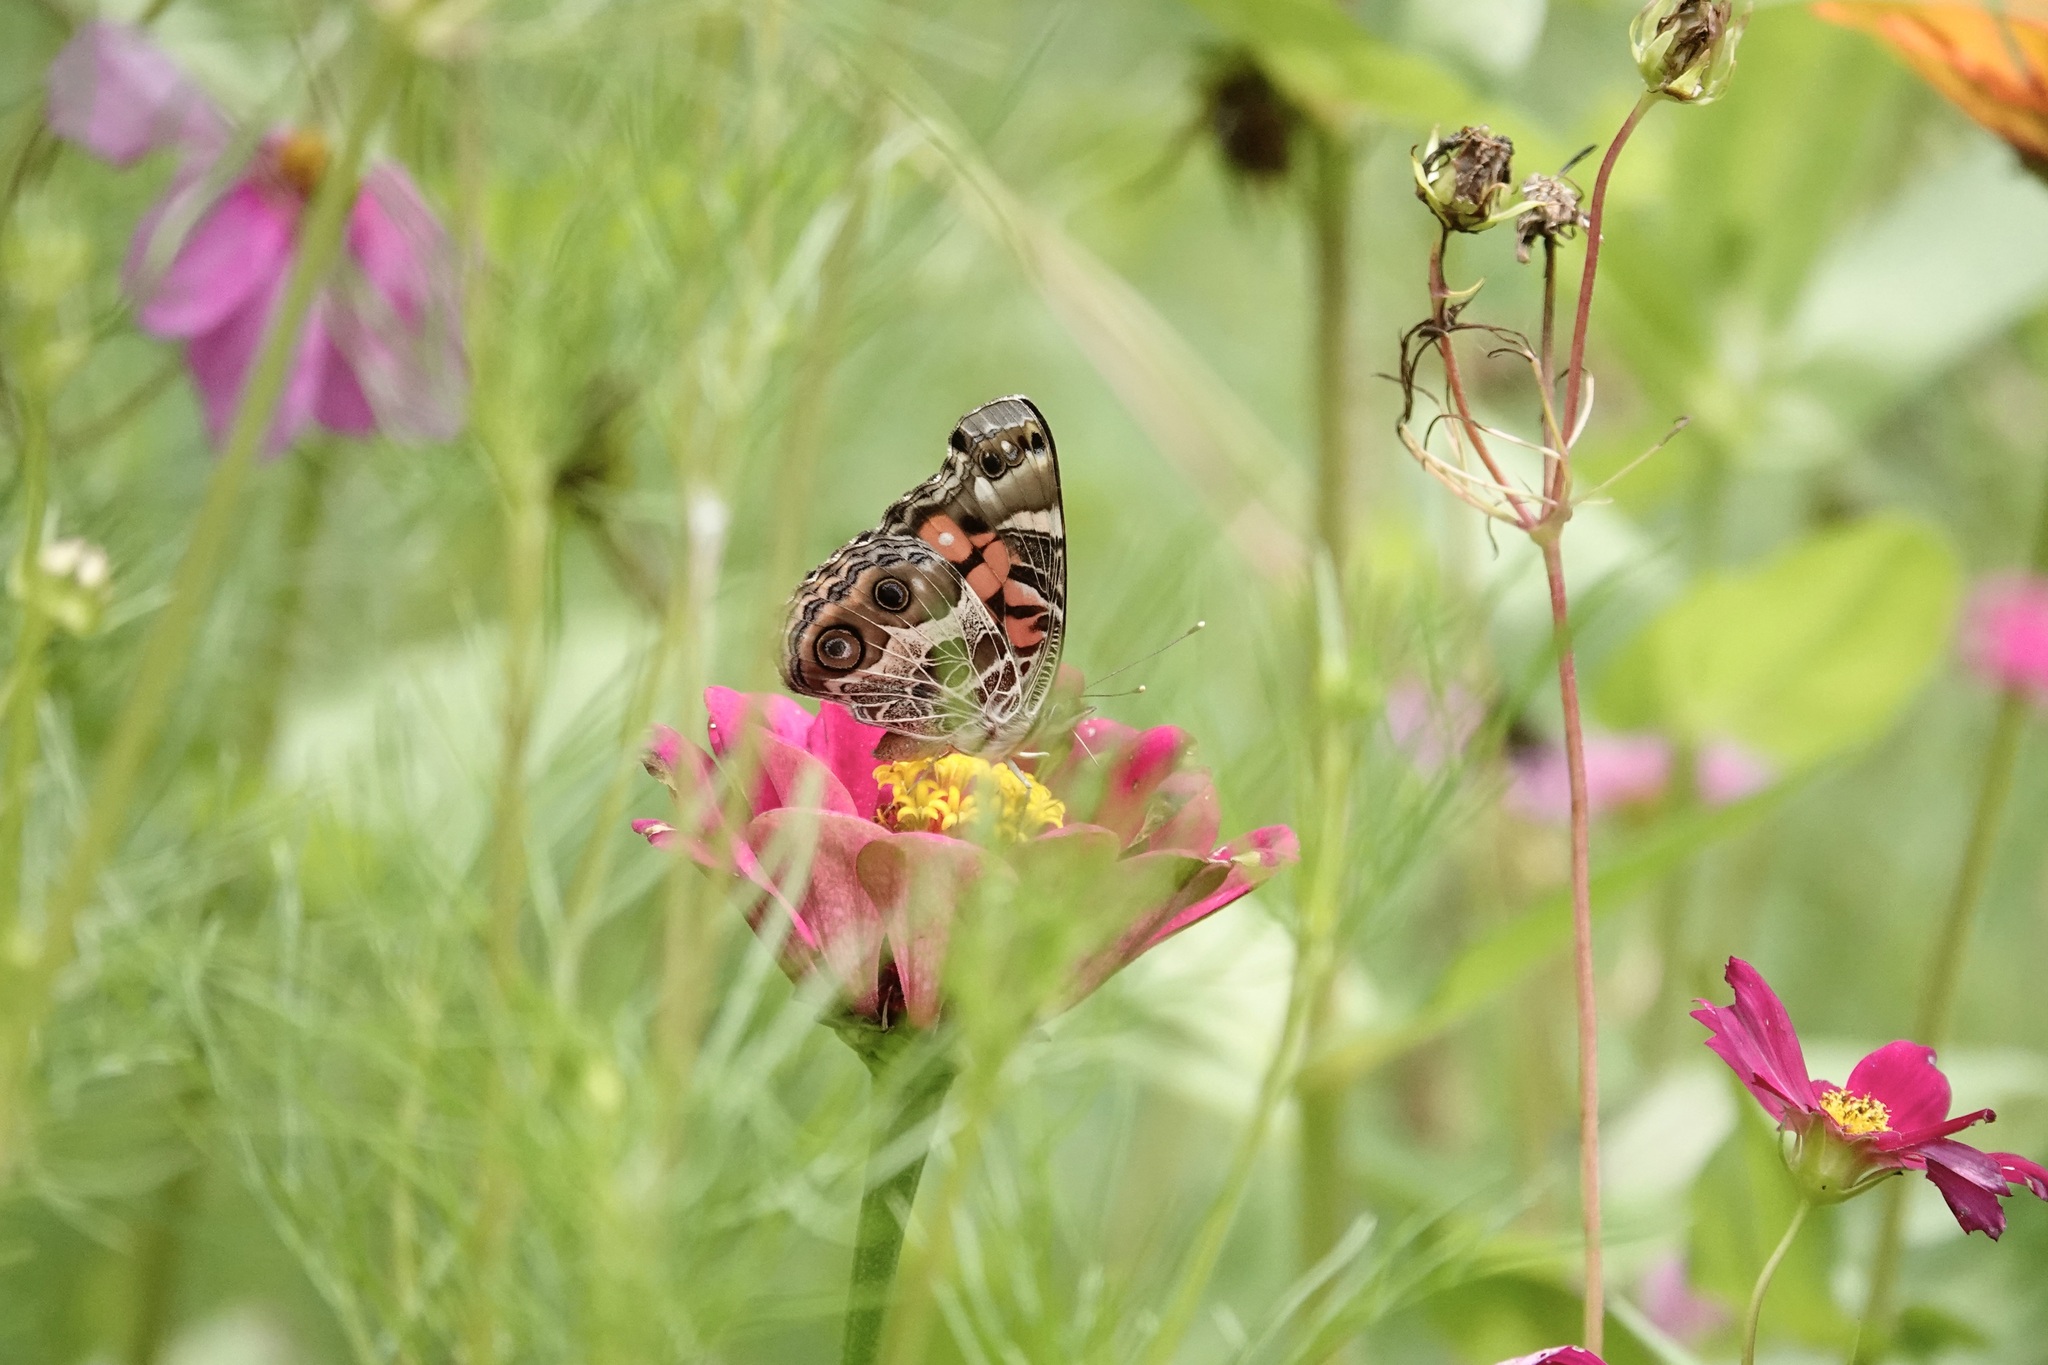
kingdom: Animalia
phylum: Arthropoda
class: Insecta
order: Lepidoptera
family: Nymphalidae
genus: Vanessa
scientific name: Vanessa virginiensis
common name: American lady
